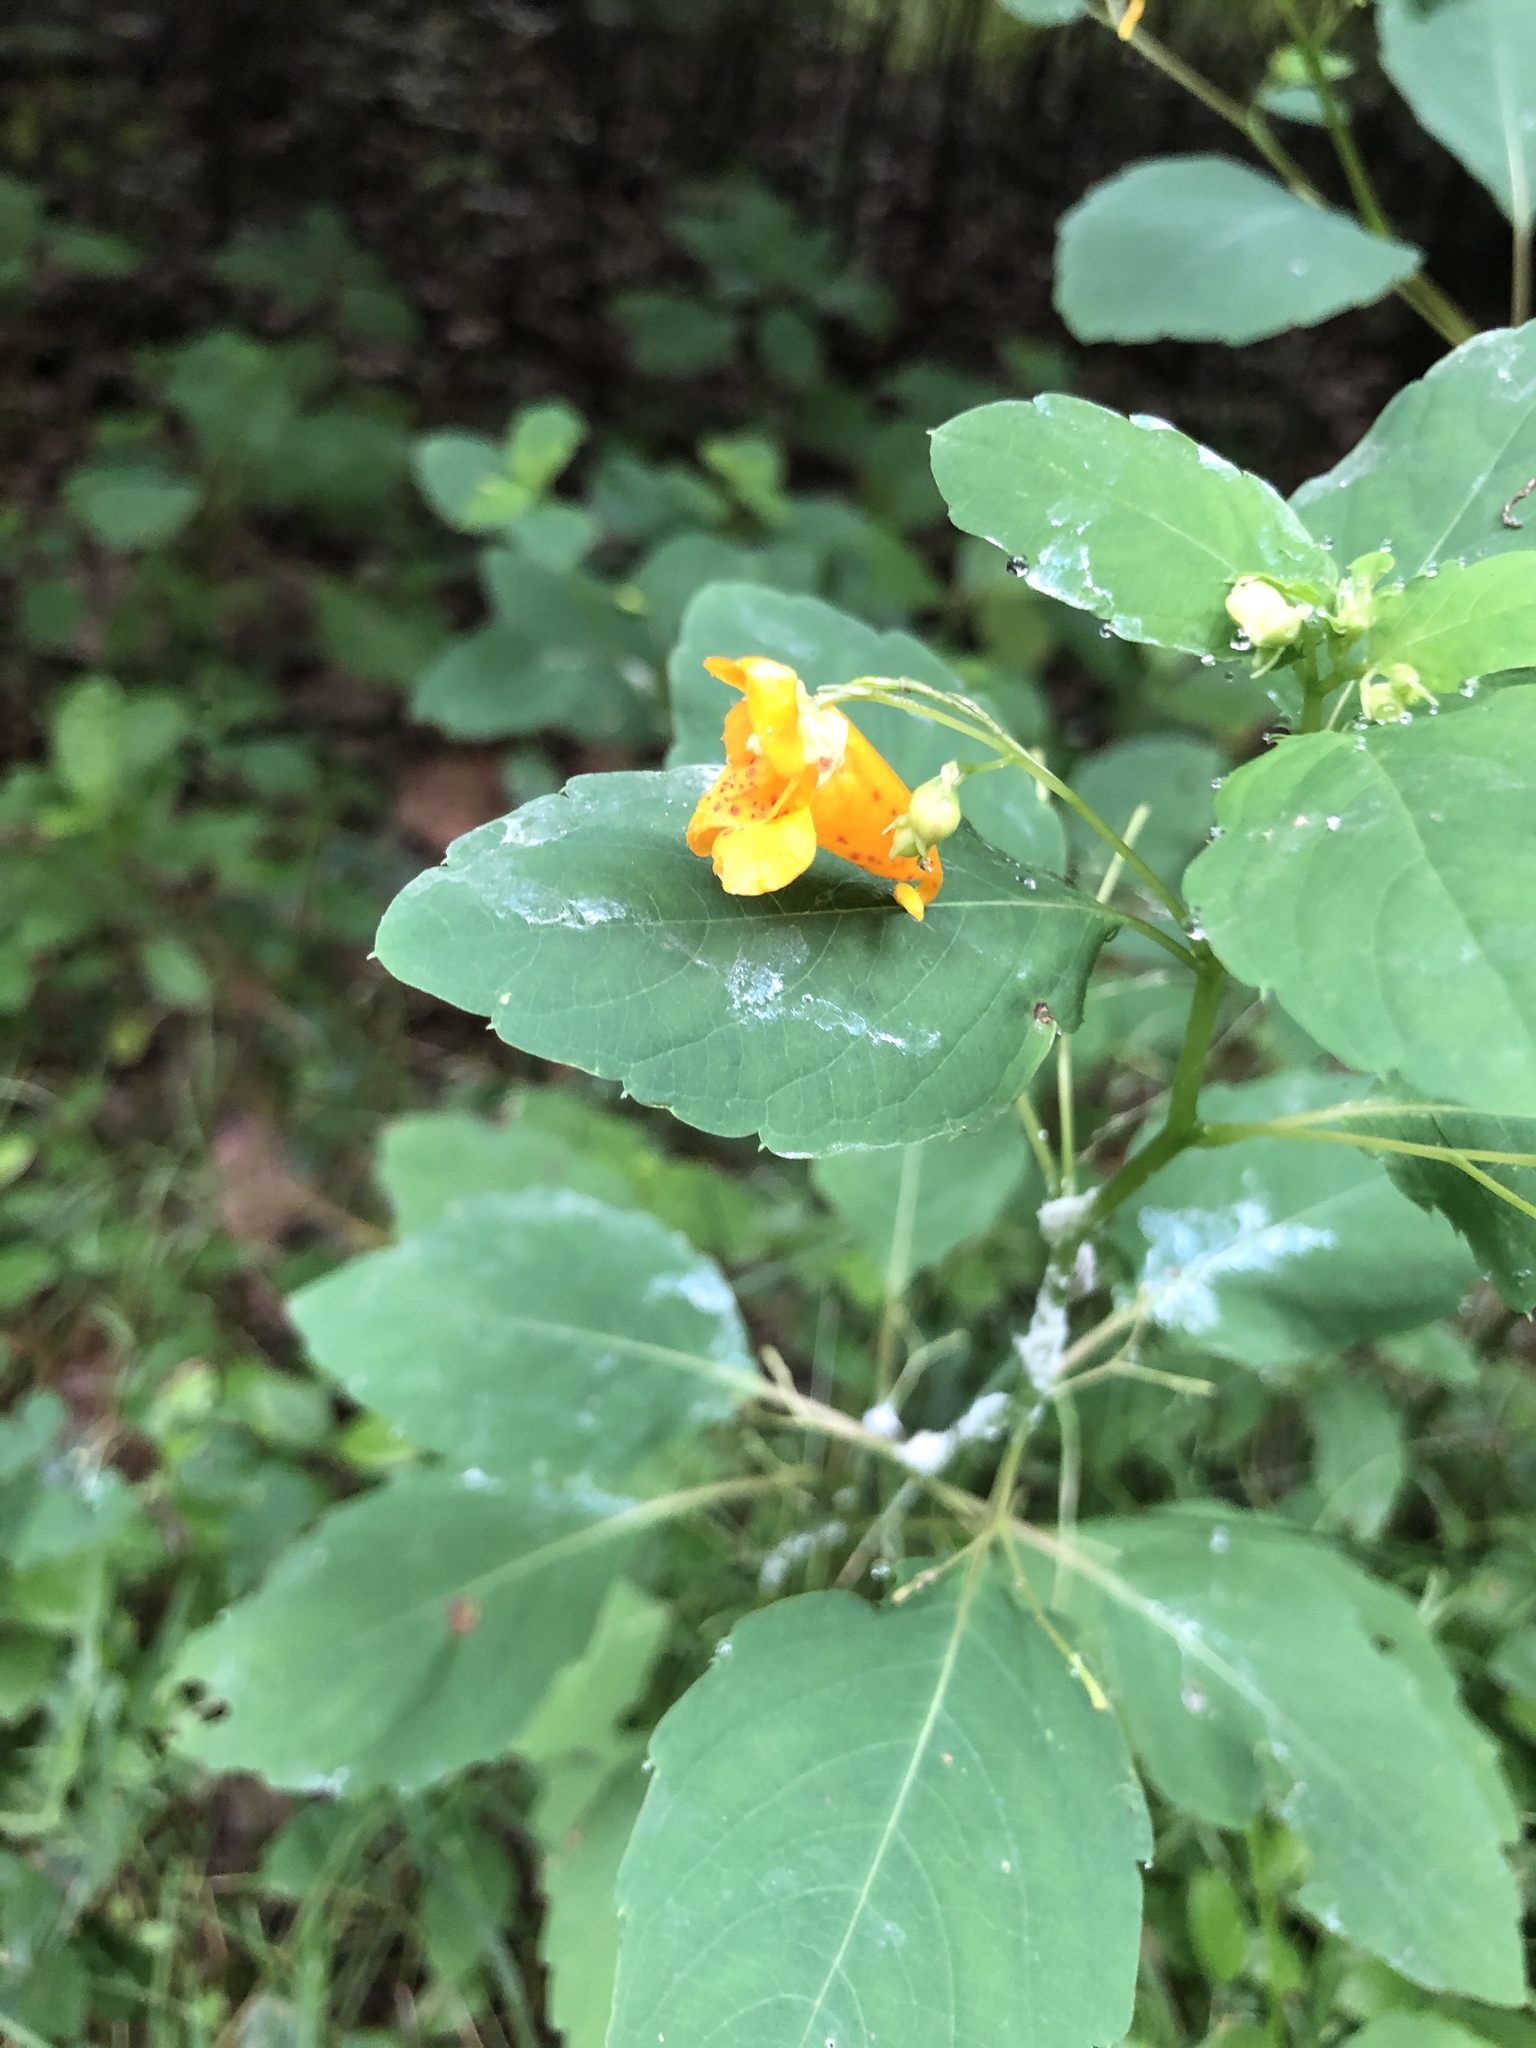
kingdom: Plantae
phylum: Tracheophyta
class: Magnoliopsida
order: Ericales
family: Balsaminaceae
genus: Impatiens
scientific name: Impatiens capensis
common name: Orange balsam
